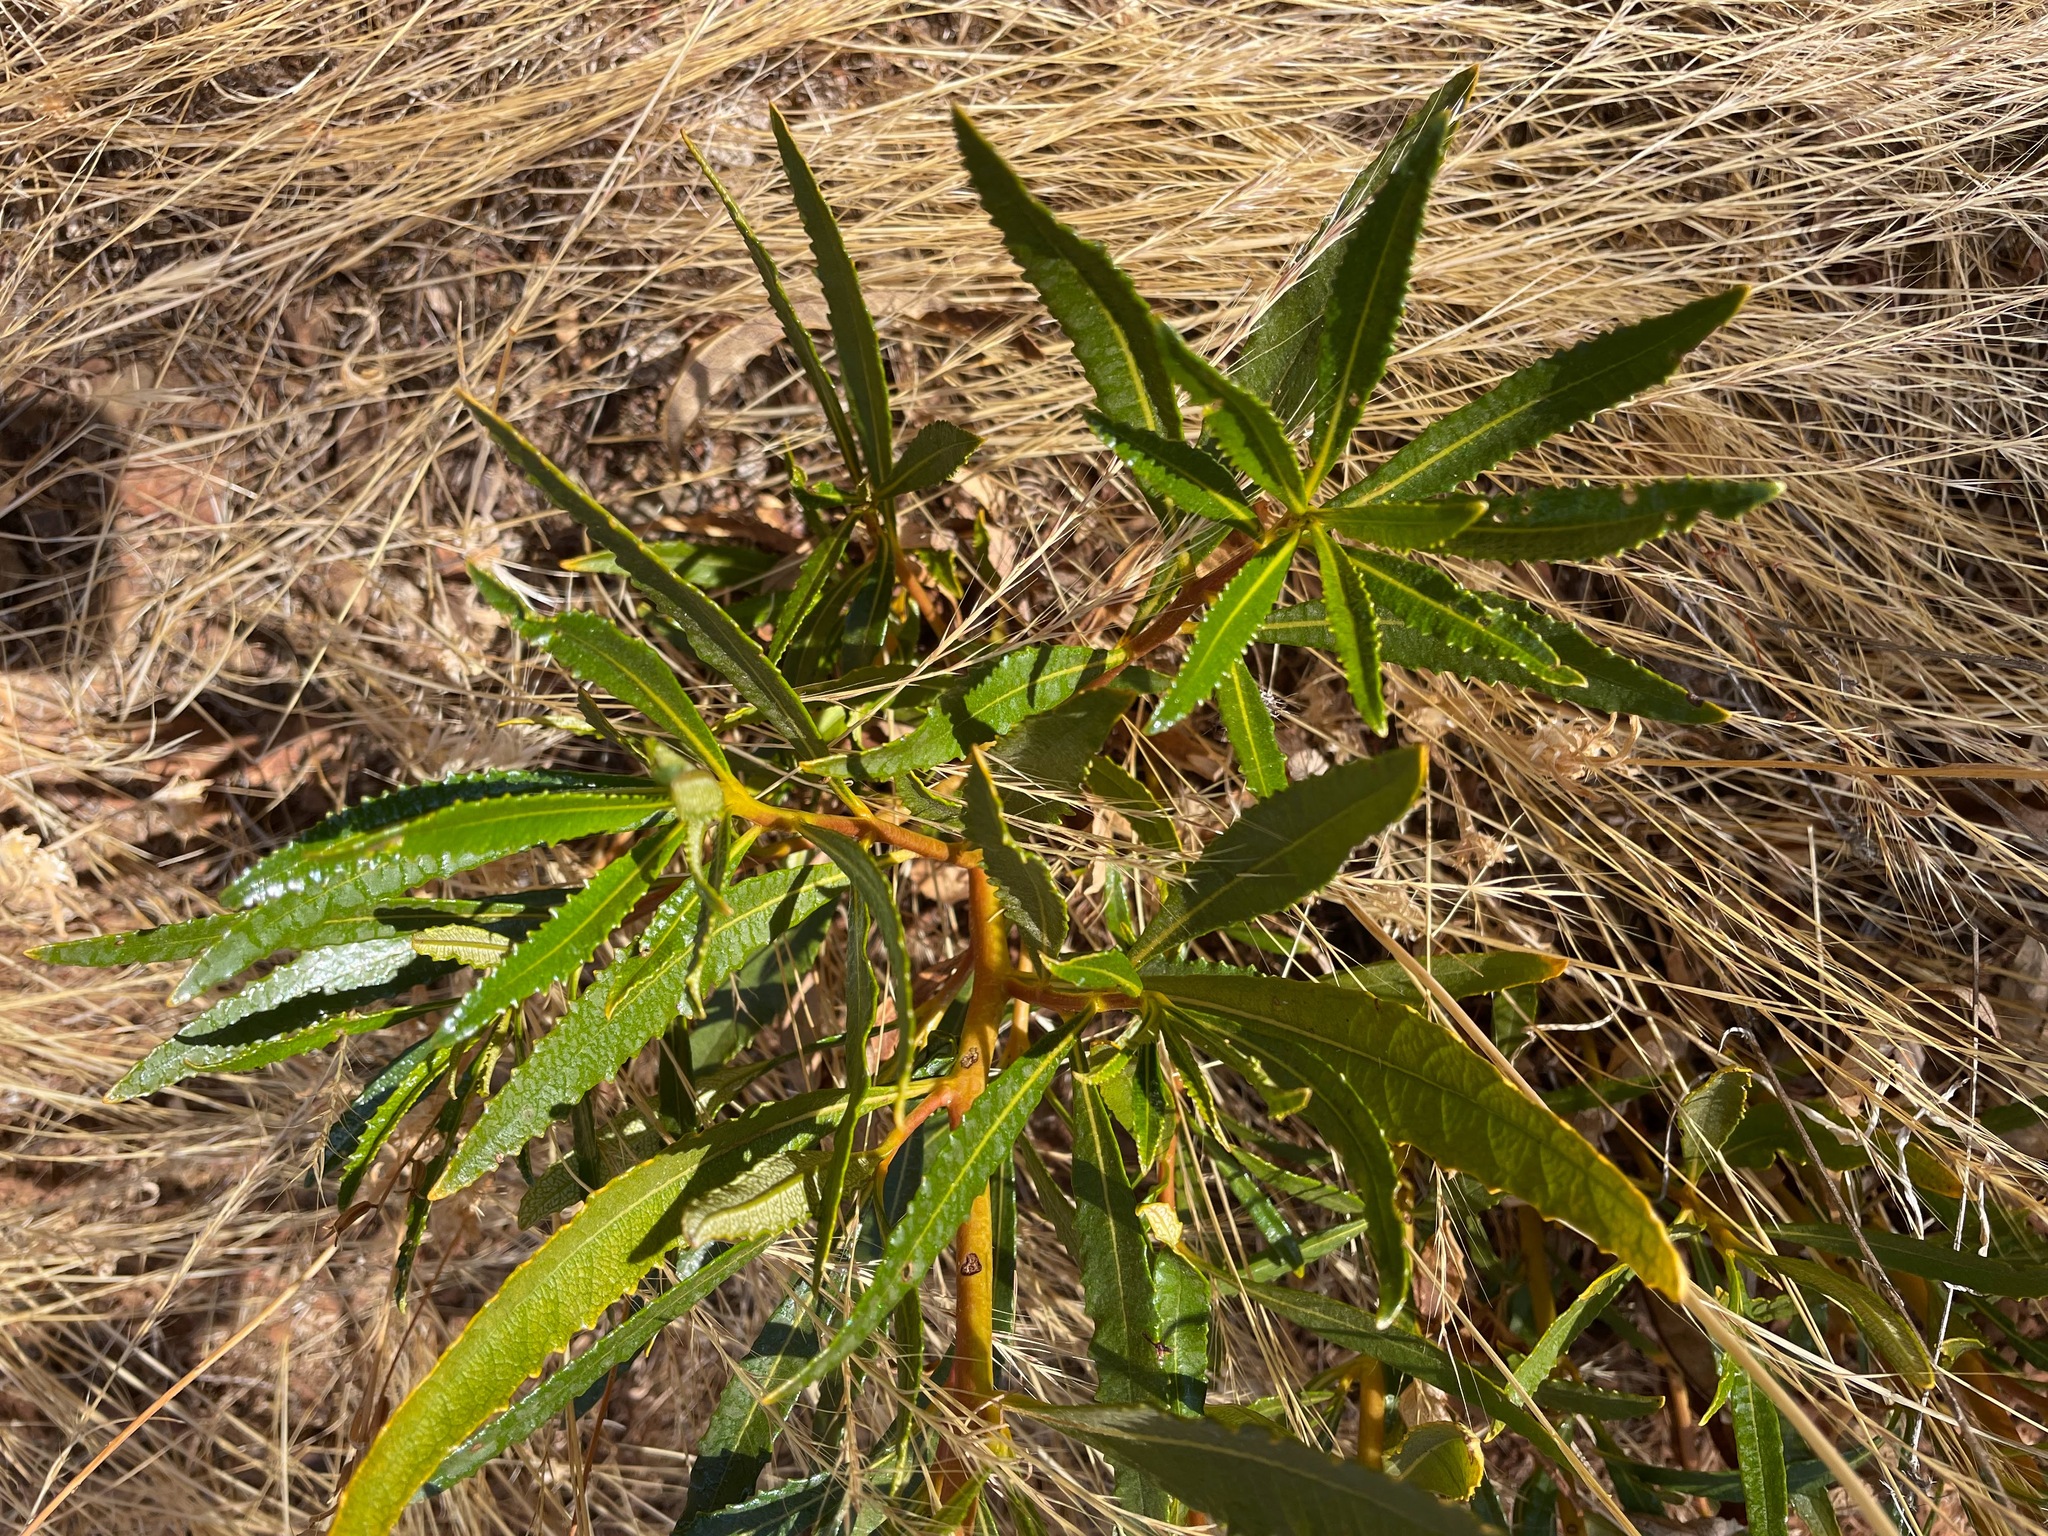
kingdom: Plantae
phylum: Tracheophyta
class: Magnoliopsida
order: Boraginales
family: Namaceae
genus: Eriodictyon
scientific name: Eriodictyon californicum
